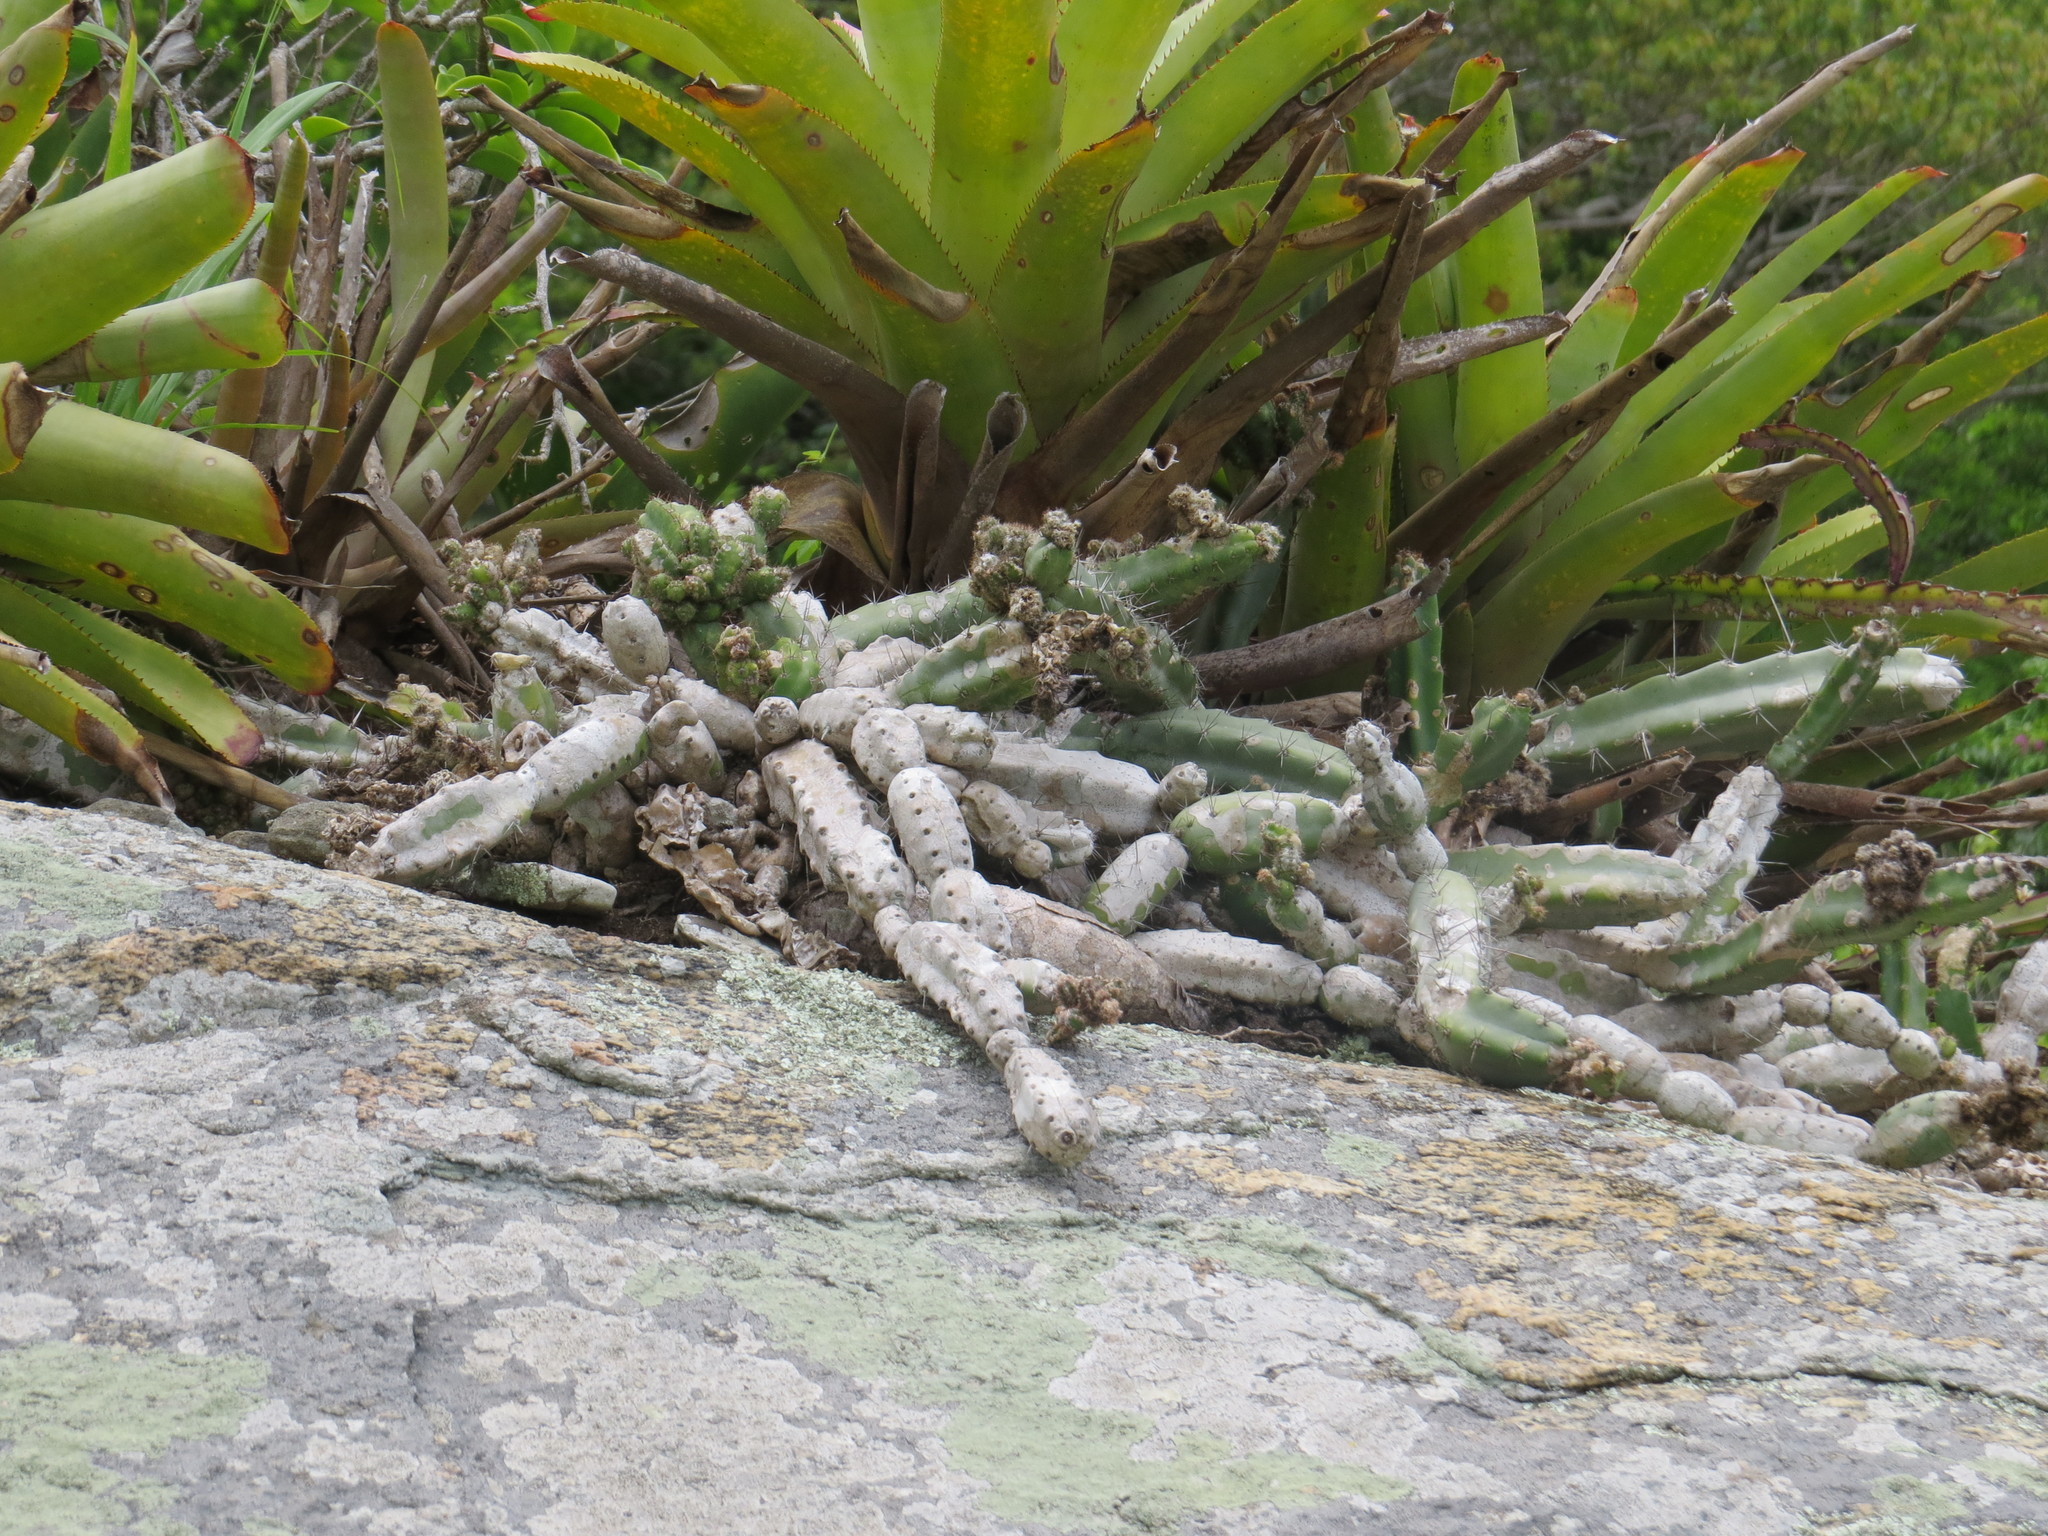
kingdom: Plantae
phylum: Tracheophyta
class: Magnoliopsida
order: Caryophyllales
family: Cactaceae
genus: Cereus
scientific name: Cereus fernambucensis
